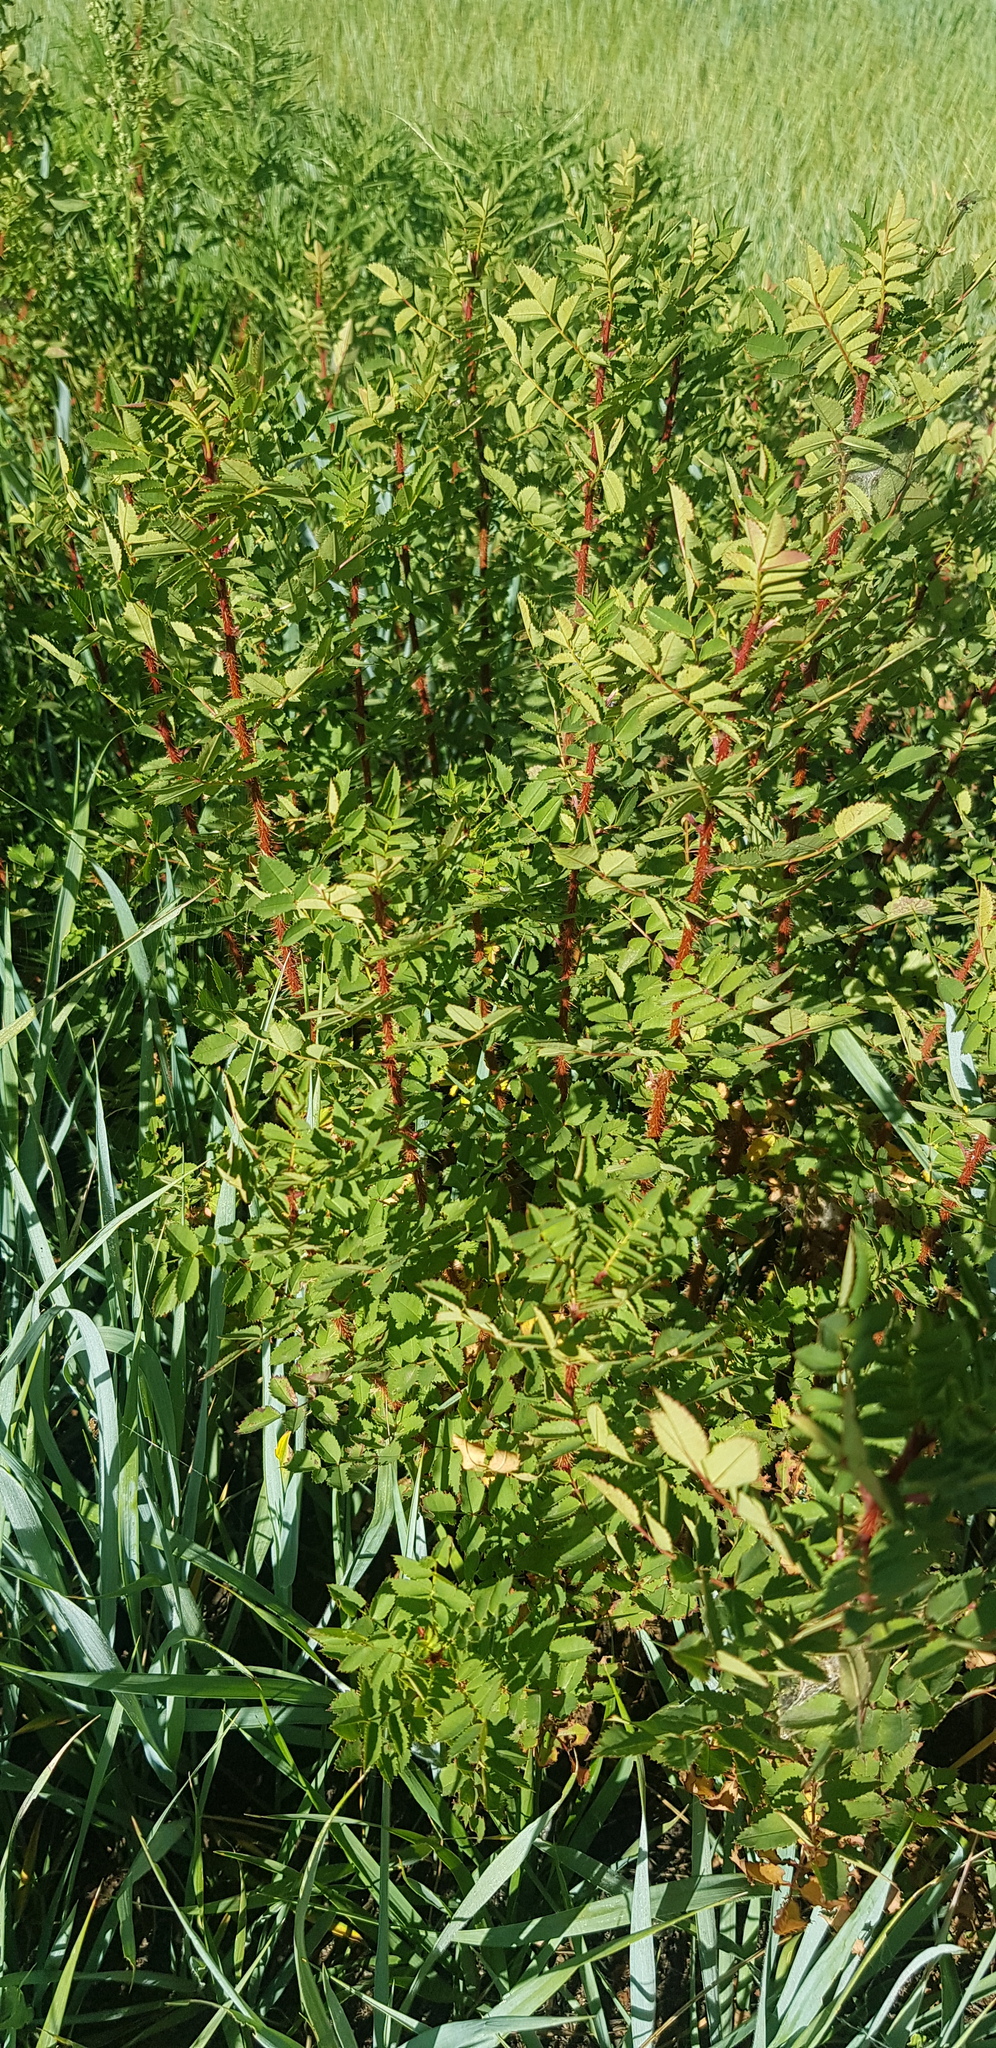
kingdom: Plantae
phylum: Tracheophyta
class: Magnoliopsida
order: Rosales
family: Rosaceae
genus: Rosa
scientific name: Rosa acicularis
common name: Prickly rose
